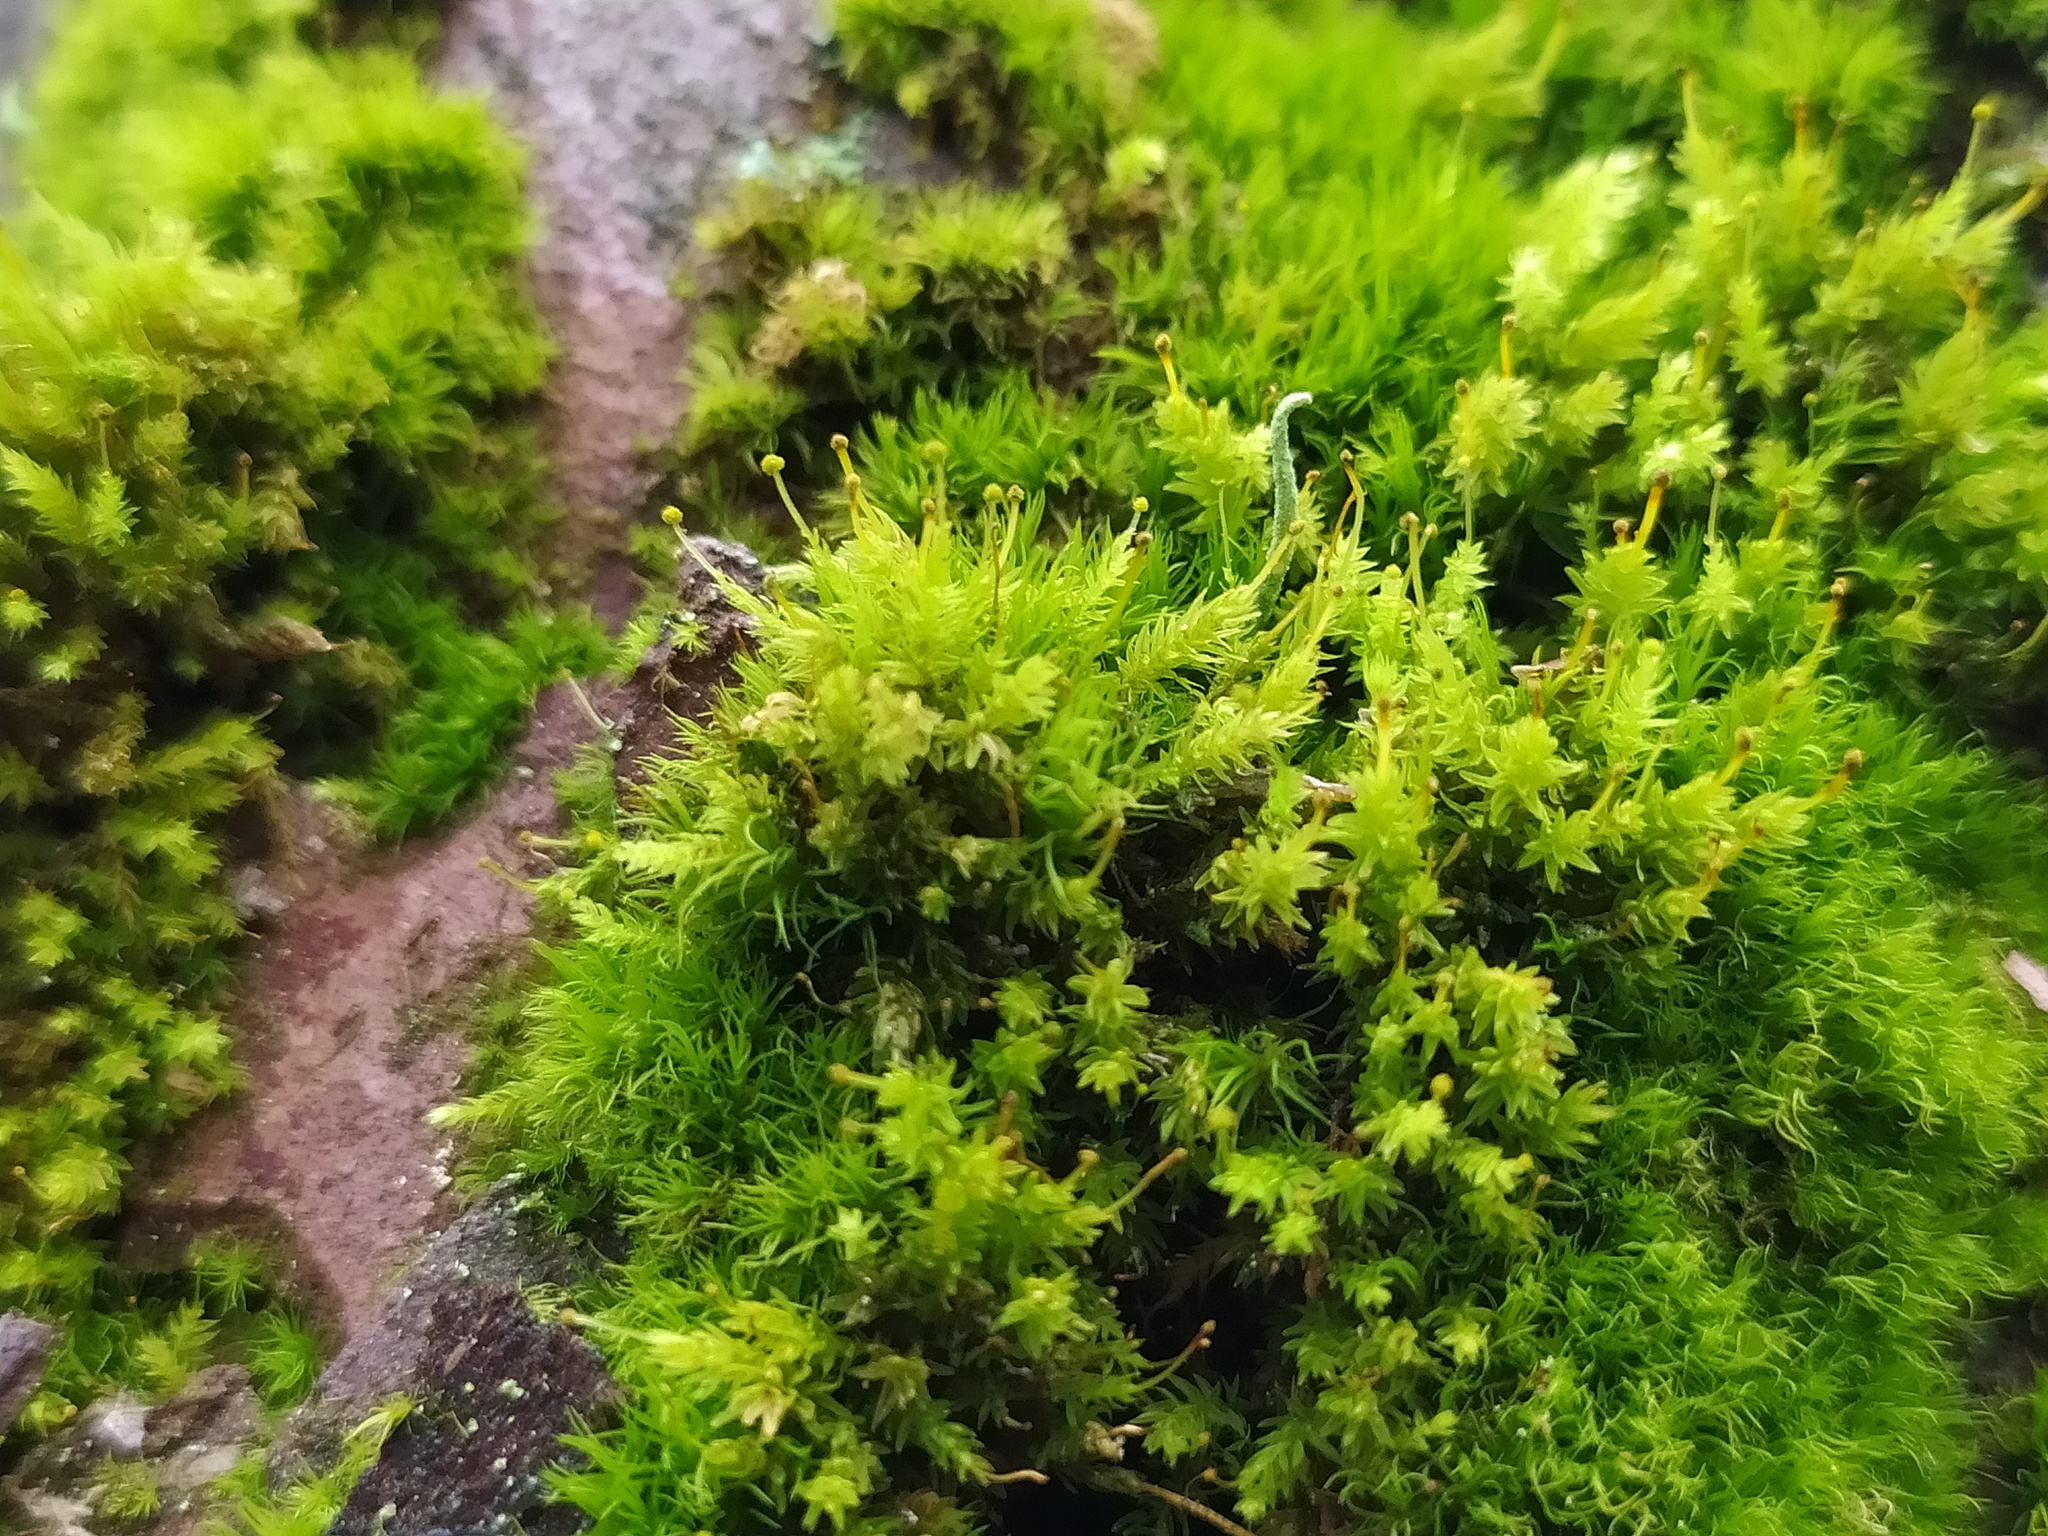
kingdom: Plantae
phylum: Bryophyta
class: Bryopsida
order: Aulacomniales
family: Aulacomniaceae
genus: Aulacomnium
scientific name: Aulacomnium androgynum
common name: Little groove moss
